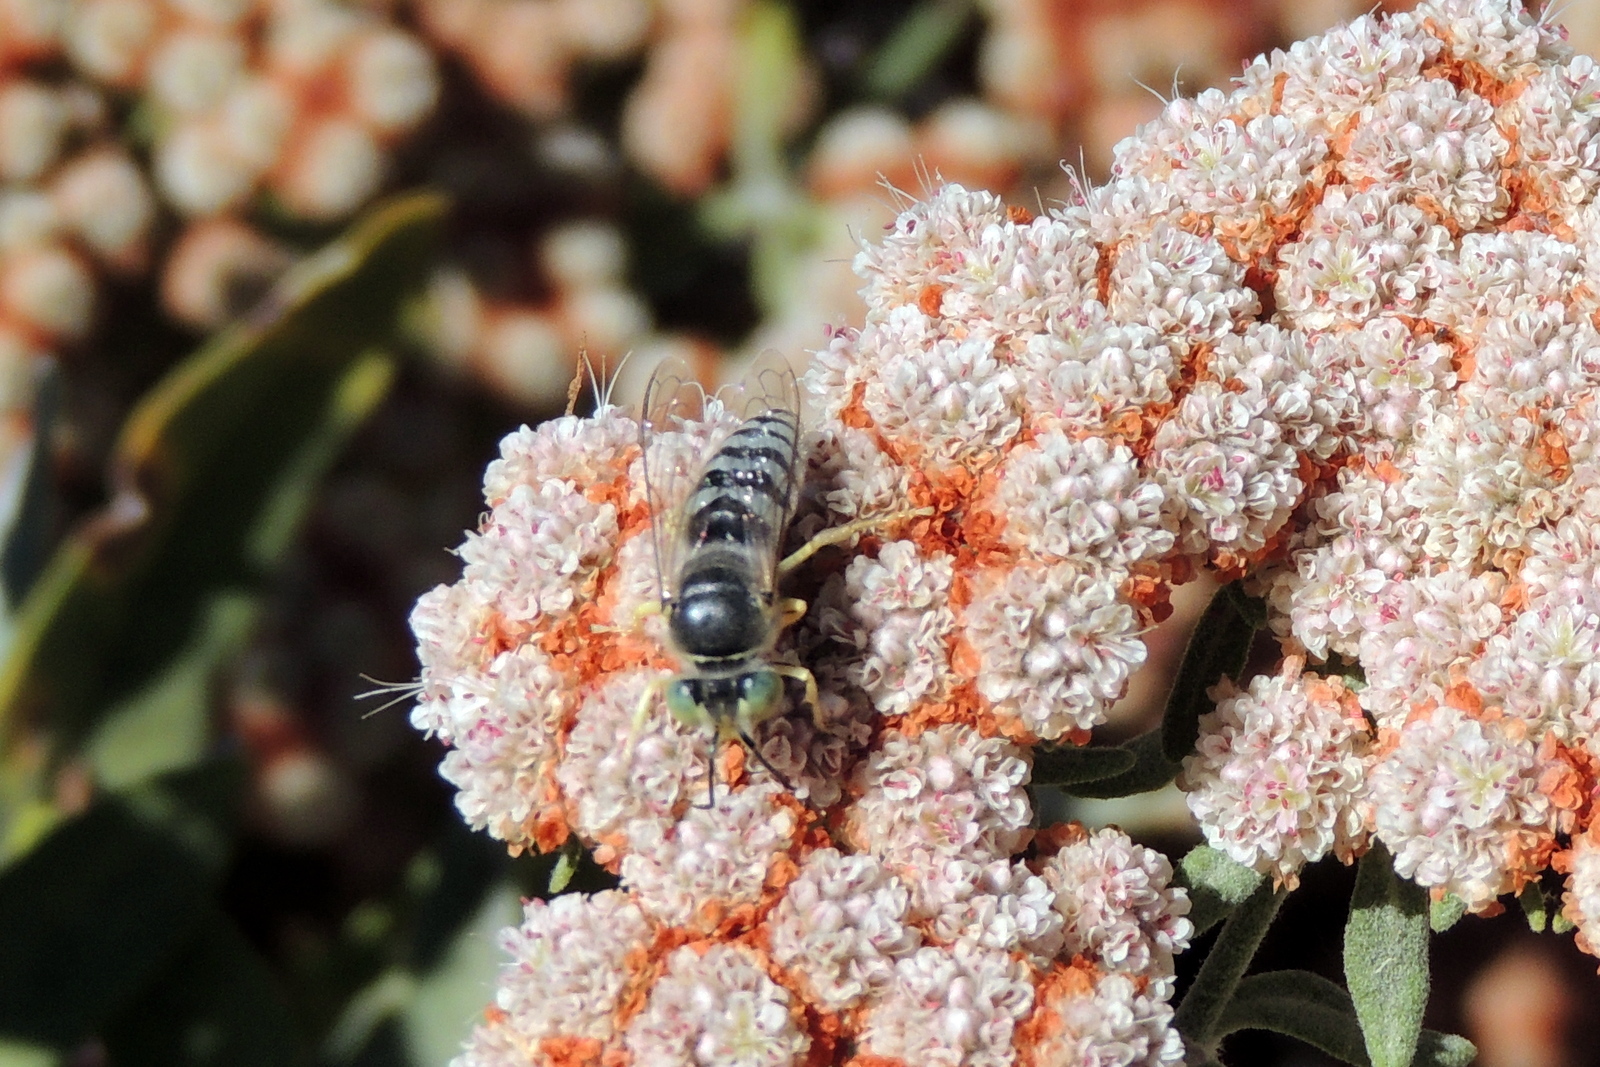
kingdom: Animalia
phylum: Arthropoda
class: Insecta
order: Hymenoptera
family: Crabronidae
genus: Bembix
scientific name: Bembix americana
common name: American sand wasp
